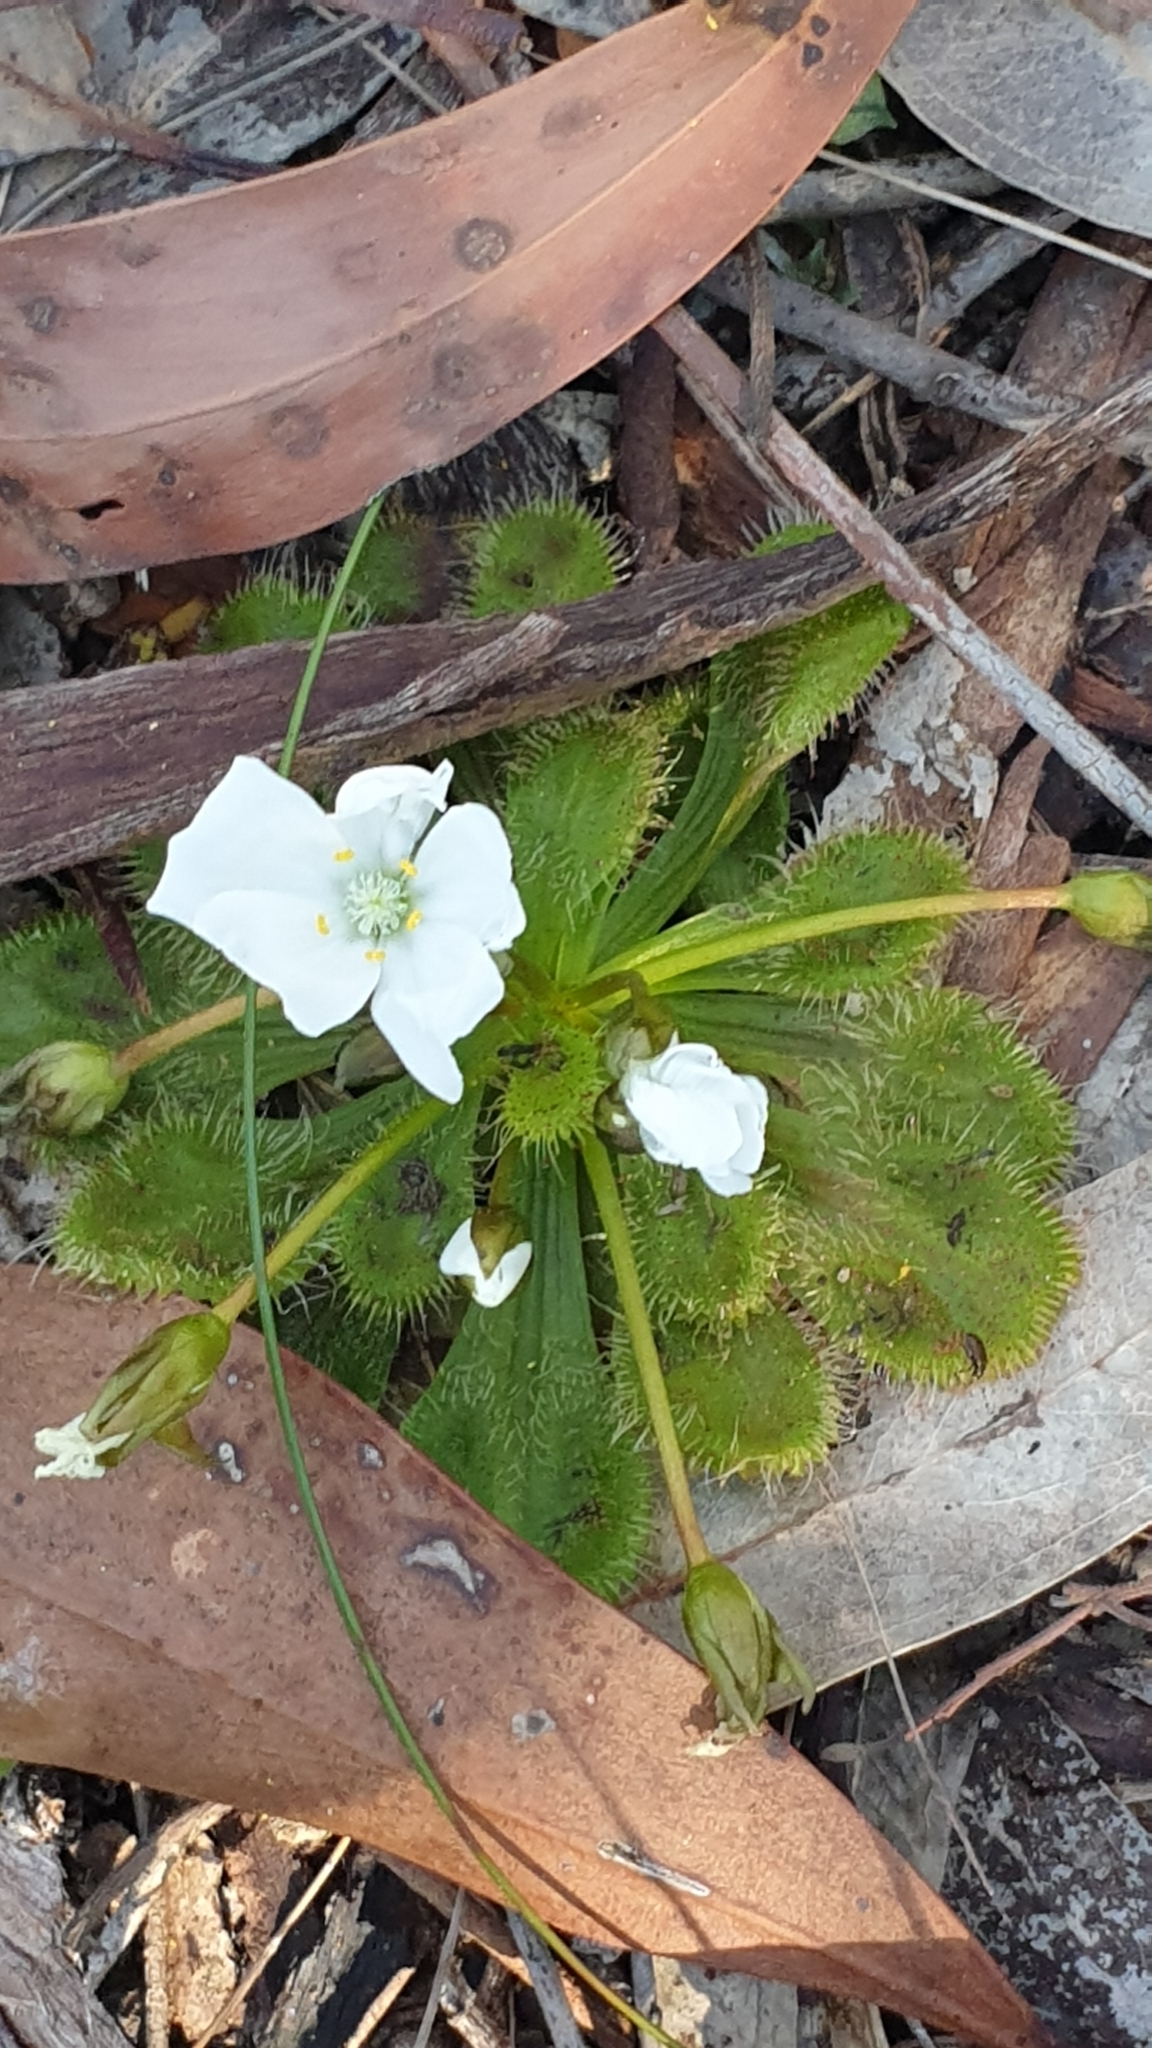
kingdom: Plantae
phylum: Tracheophyta
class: Magnoliopsida
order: Caryophyllales
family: Droseraceae
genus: Drosera
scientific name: Drosera whittakeri
